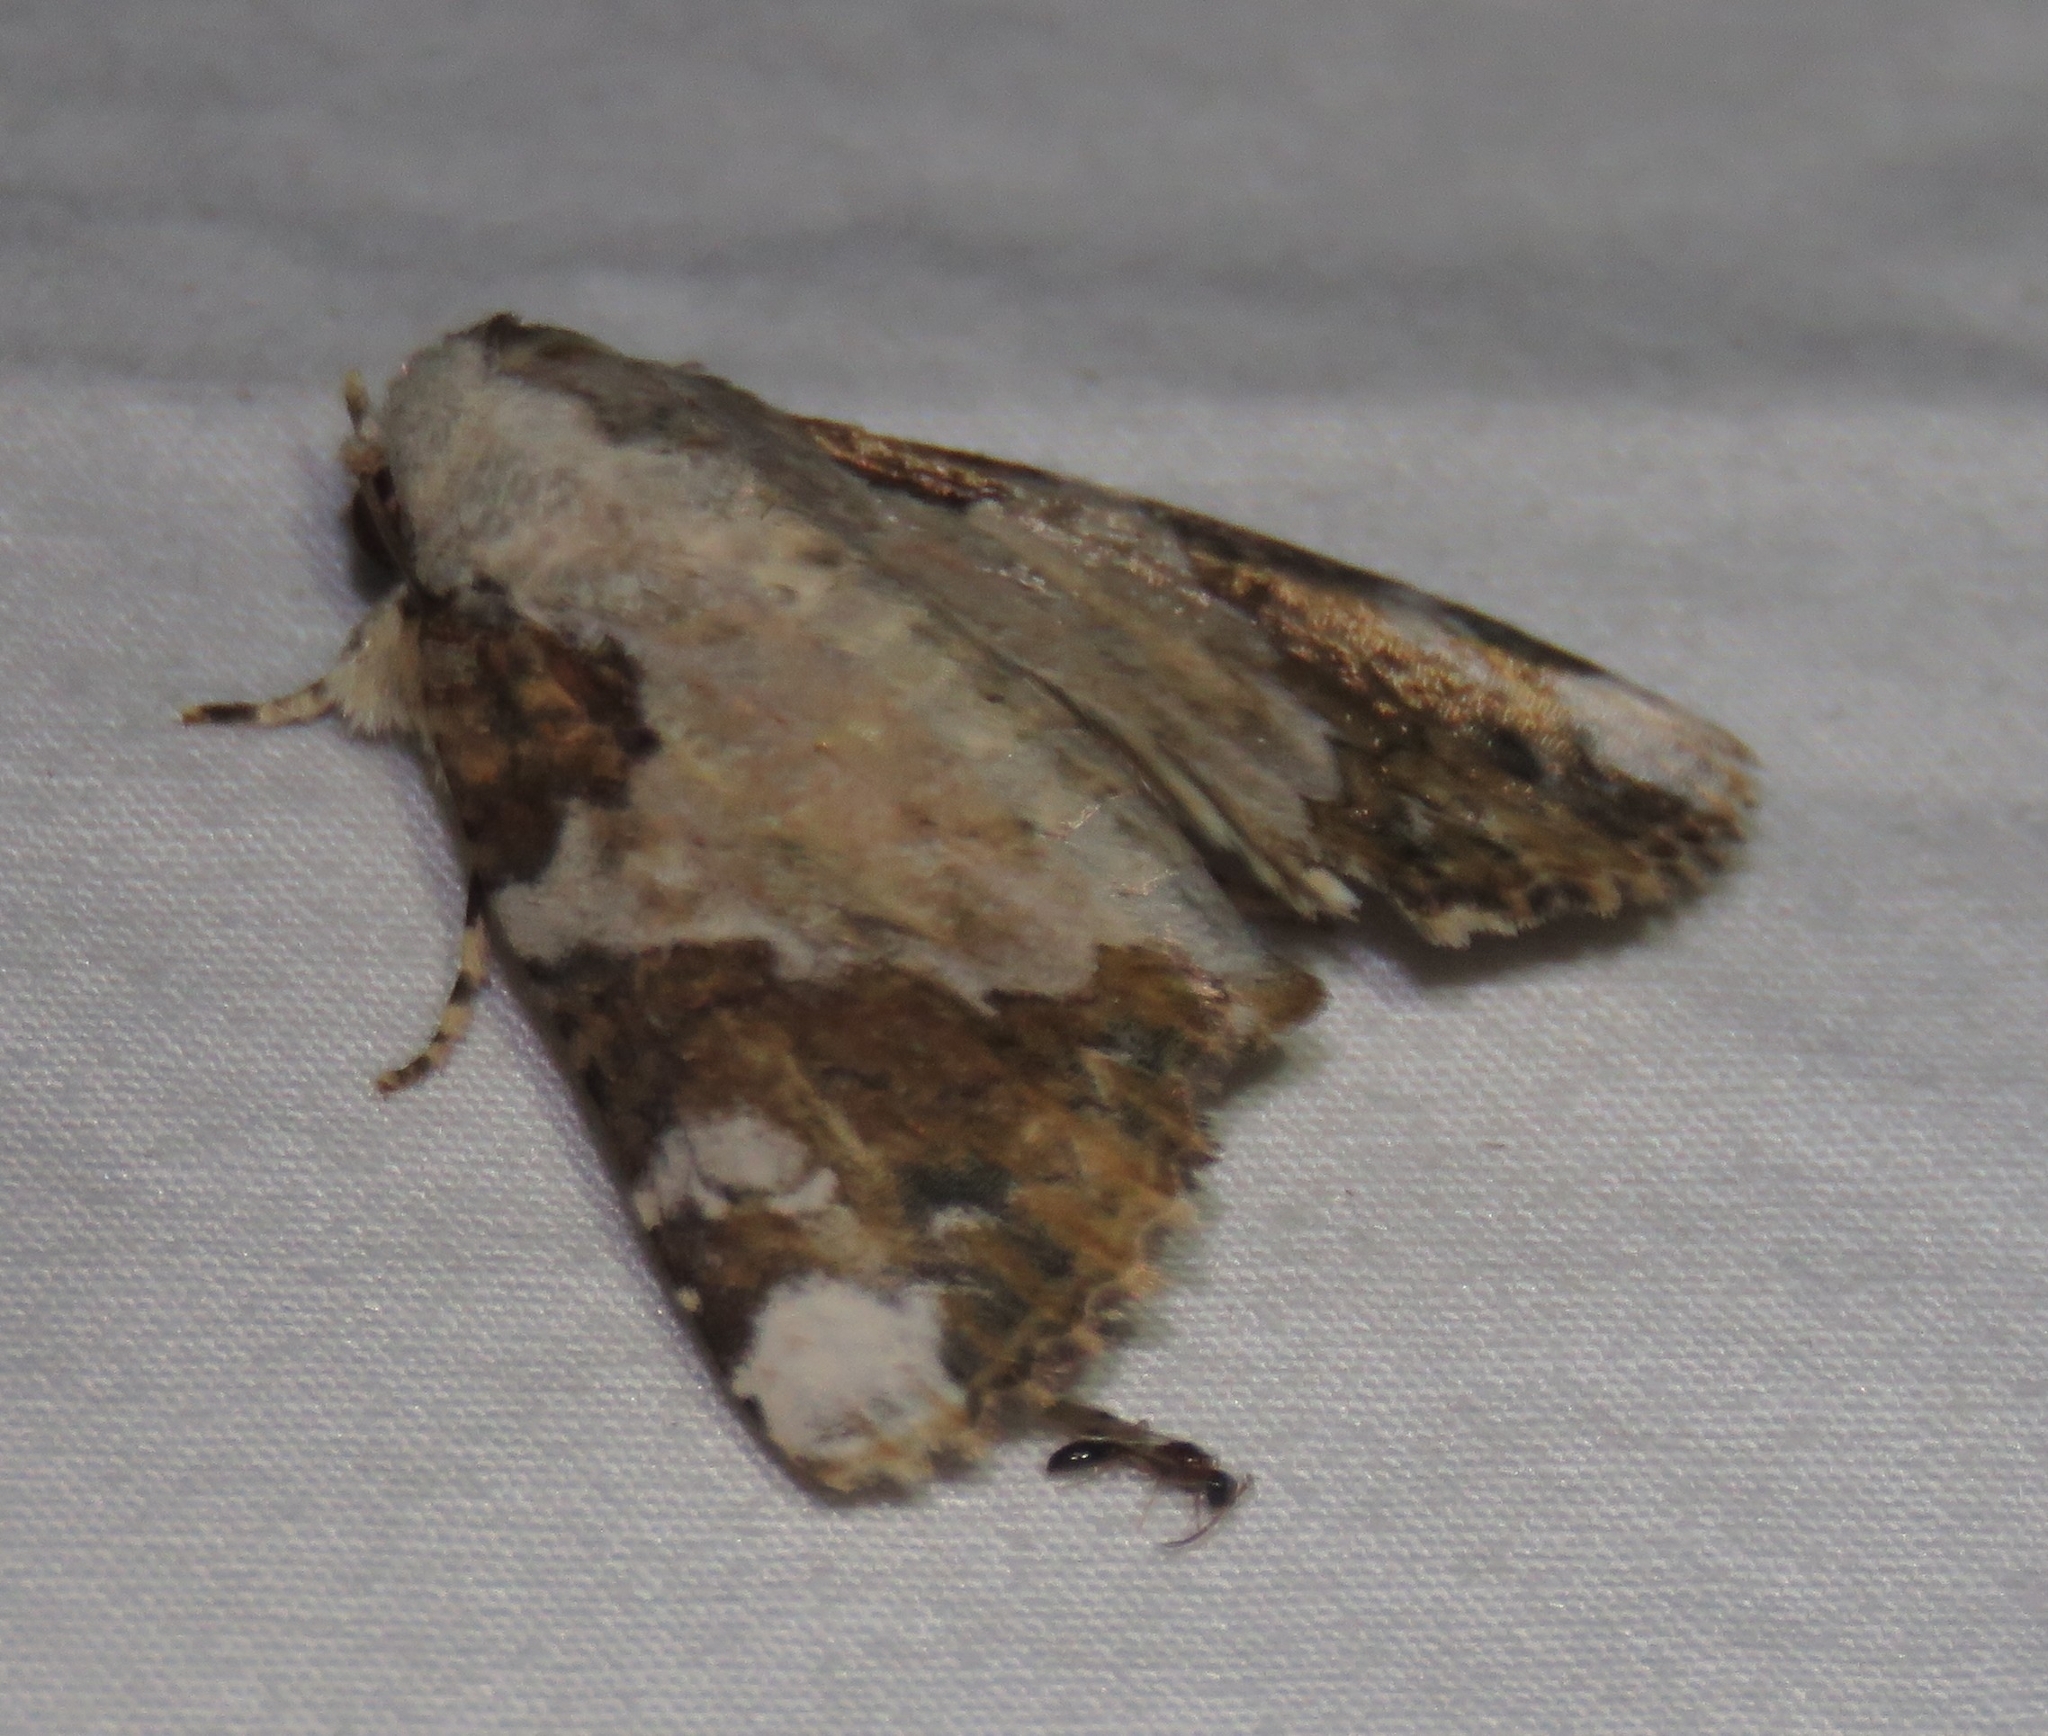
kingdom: Animalia
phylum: Arthropoda
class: Insecta
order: Lepidoptera
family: Nolidae
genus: Beana
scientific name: Beana terminigera
